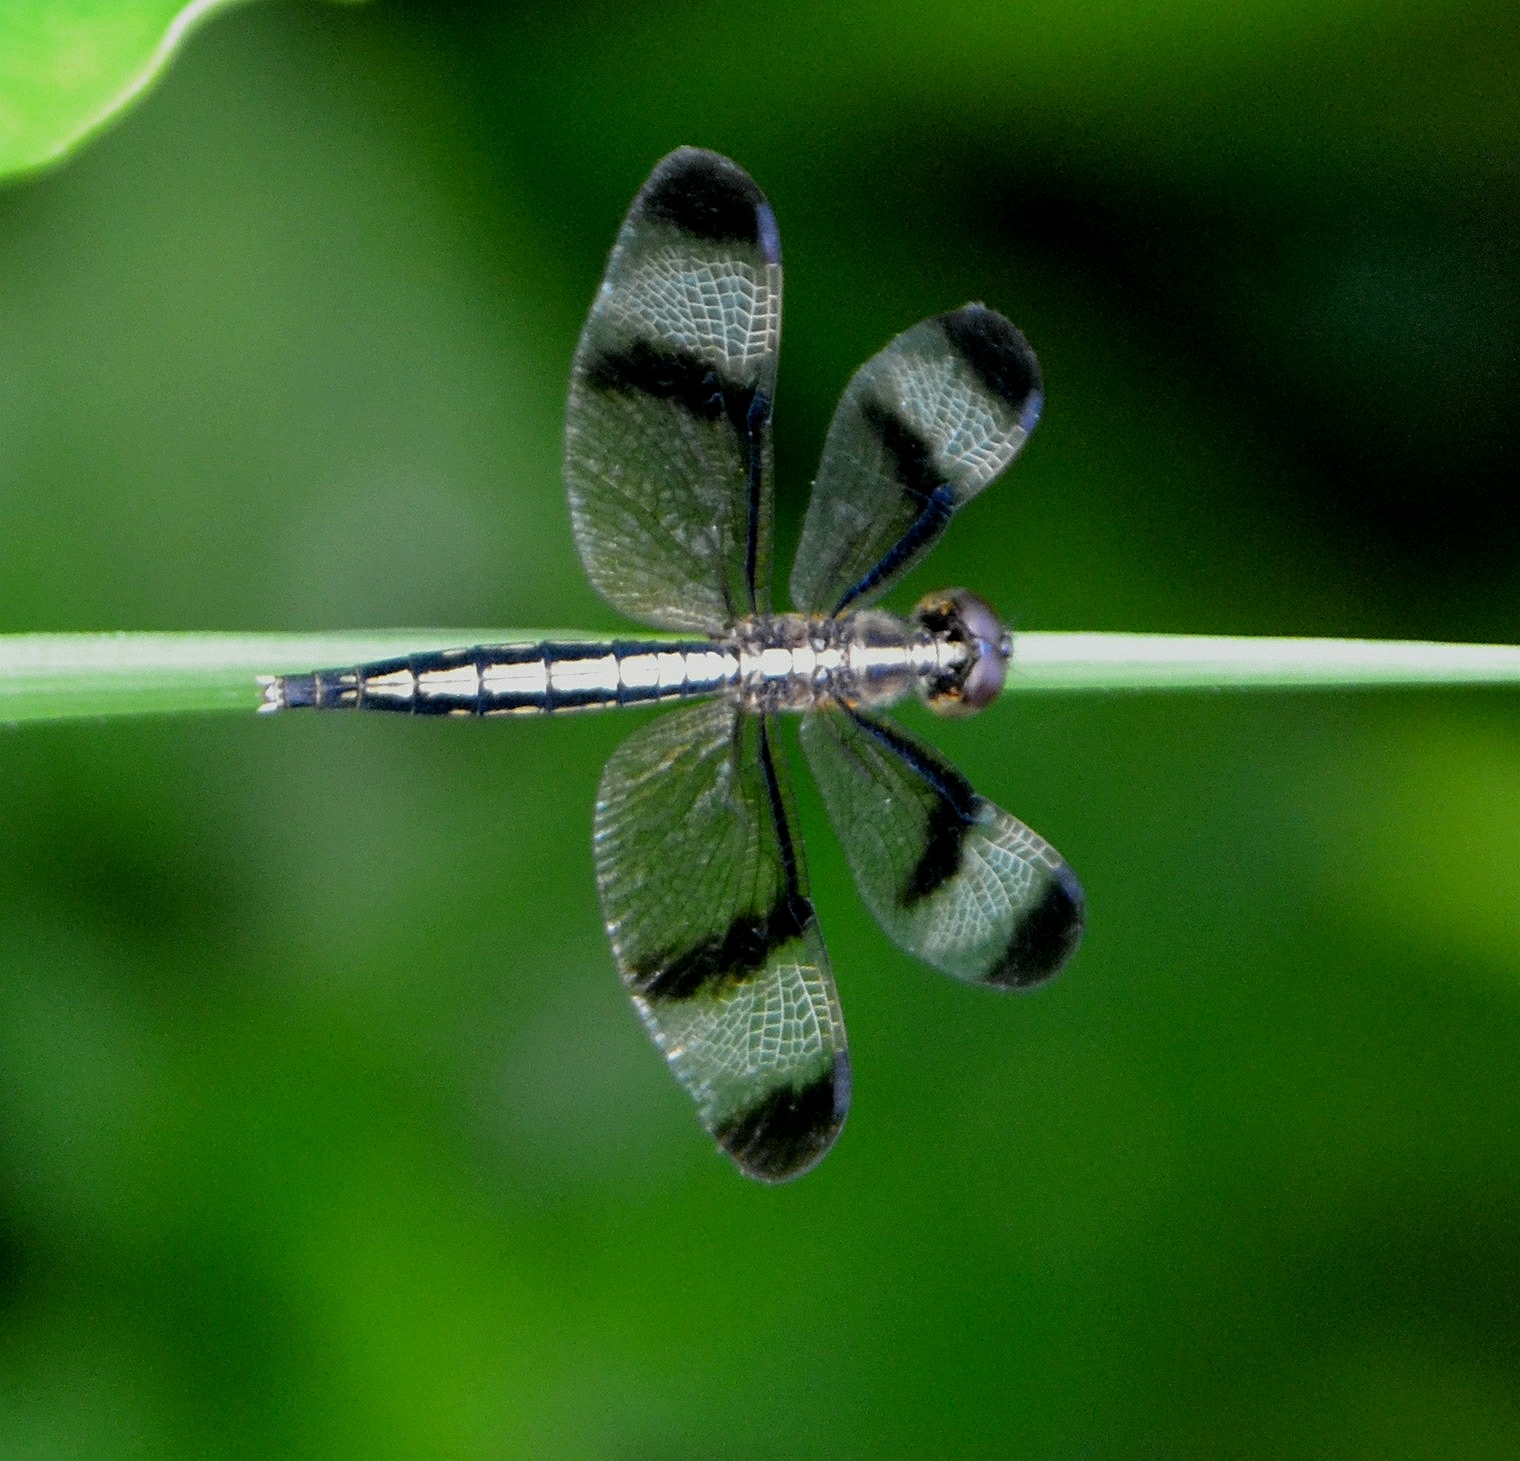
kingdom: Animalia
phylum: Arthropoda
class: Insecta
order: Odonata
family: Libellulidae
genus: Neurothemis
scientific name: Neurothemis tullia
